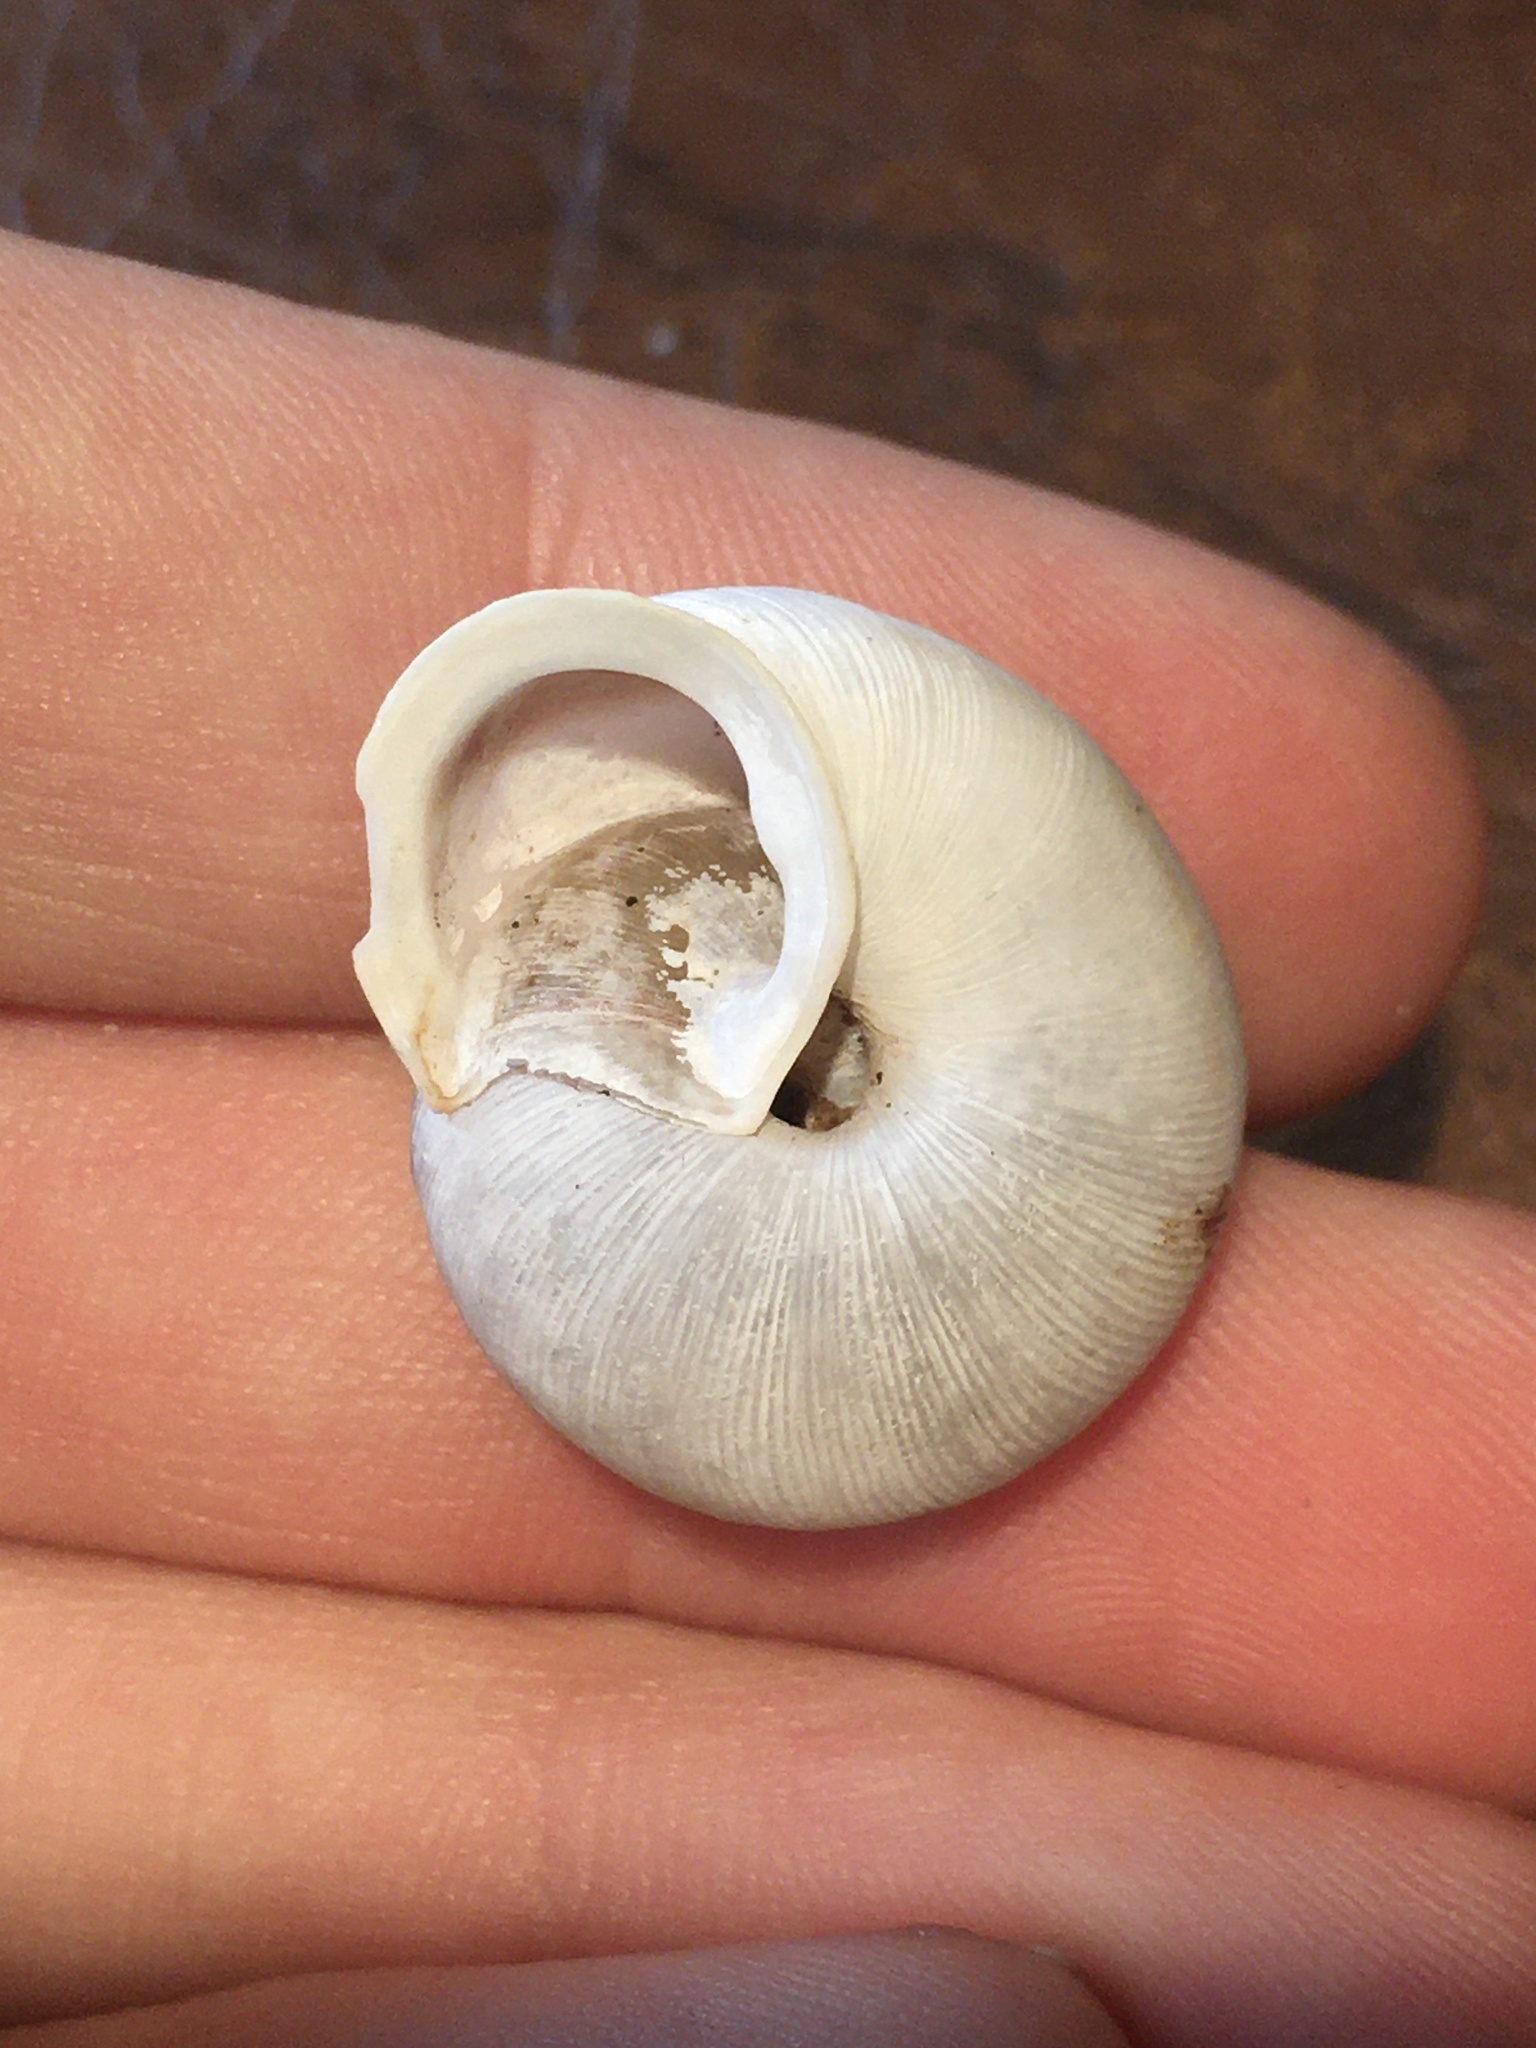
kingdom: Animalia
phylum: Mollusca
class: Gastropoda
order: Stylommatophora
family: Polygyridae
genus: Allogona
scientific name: Allogona profunda
